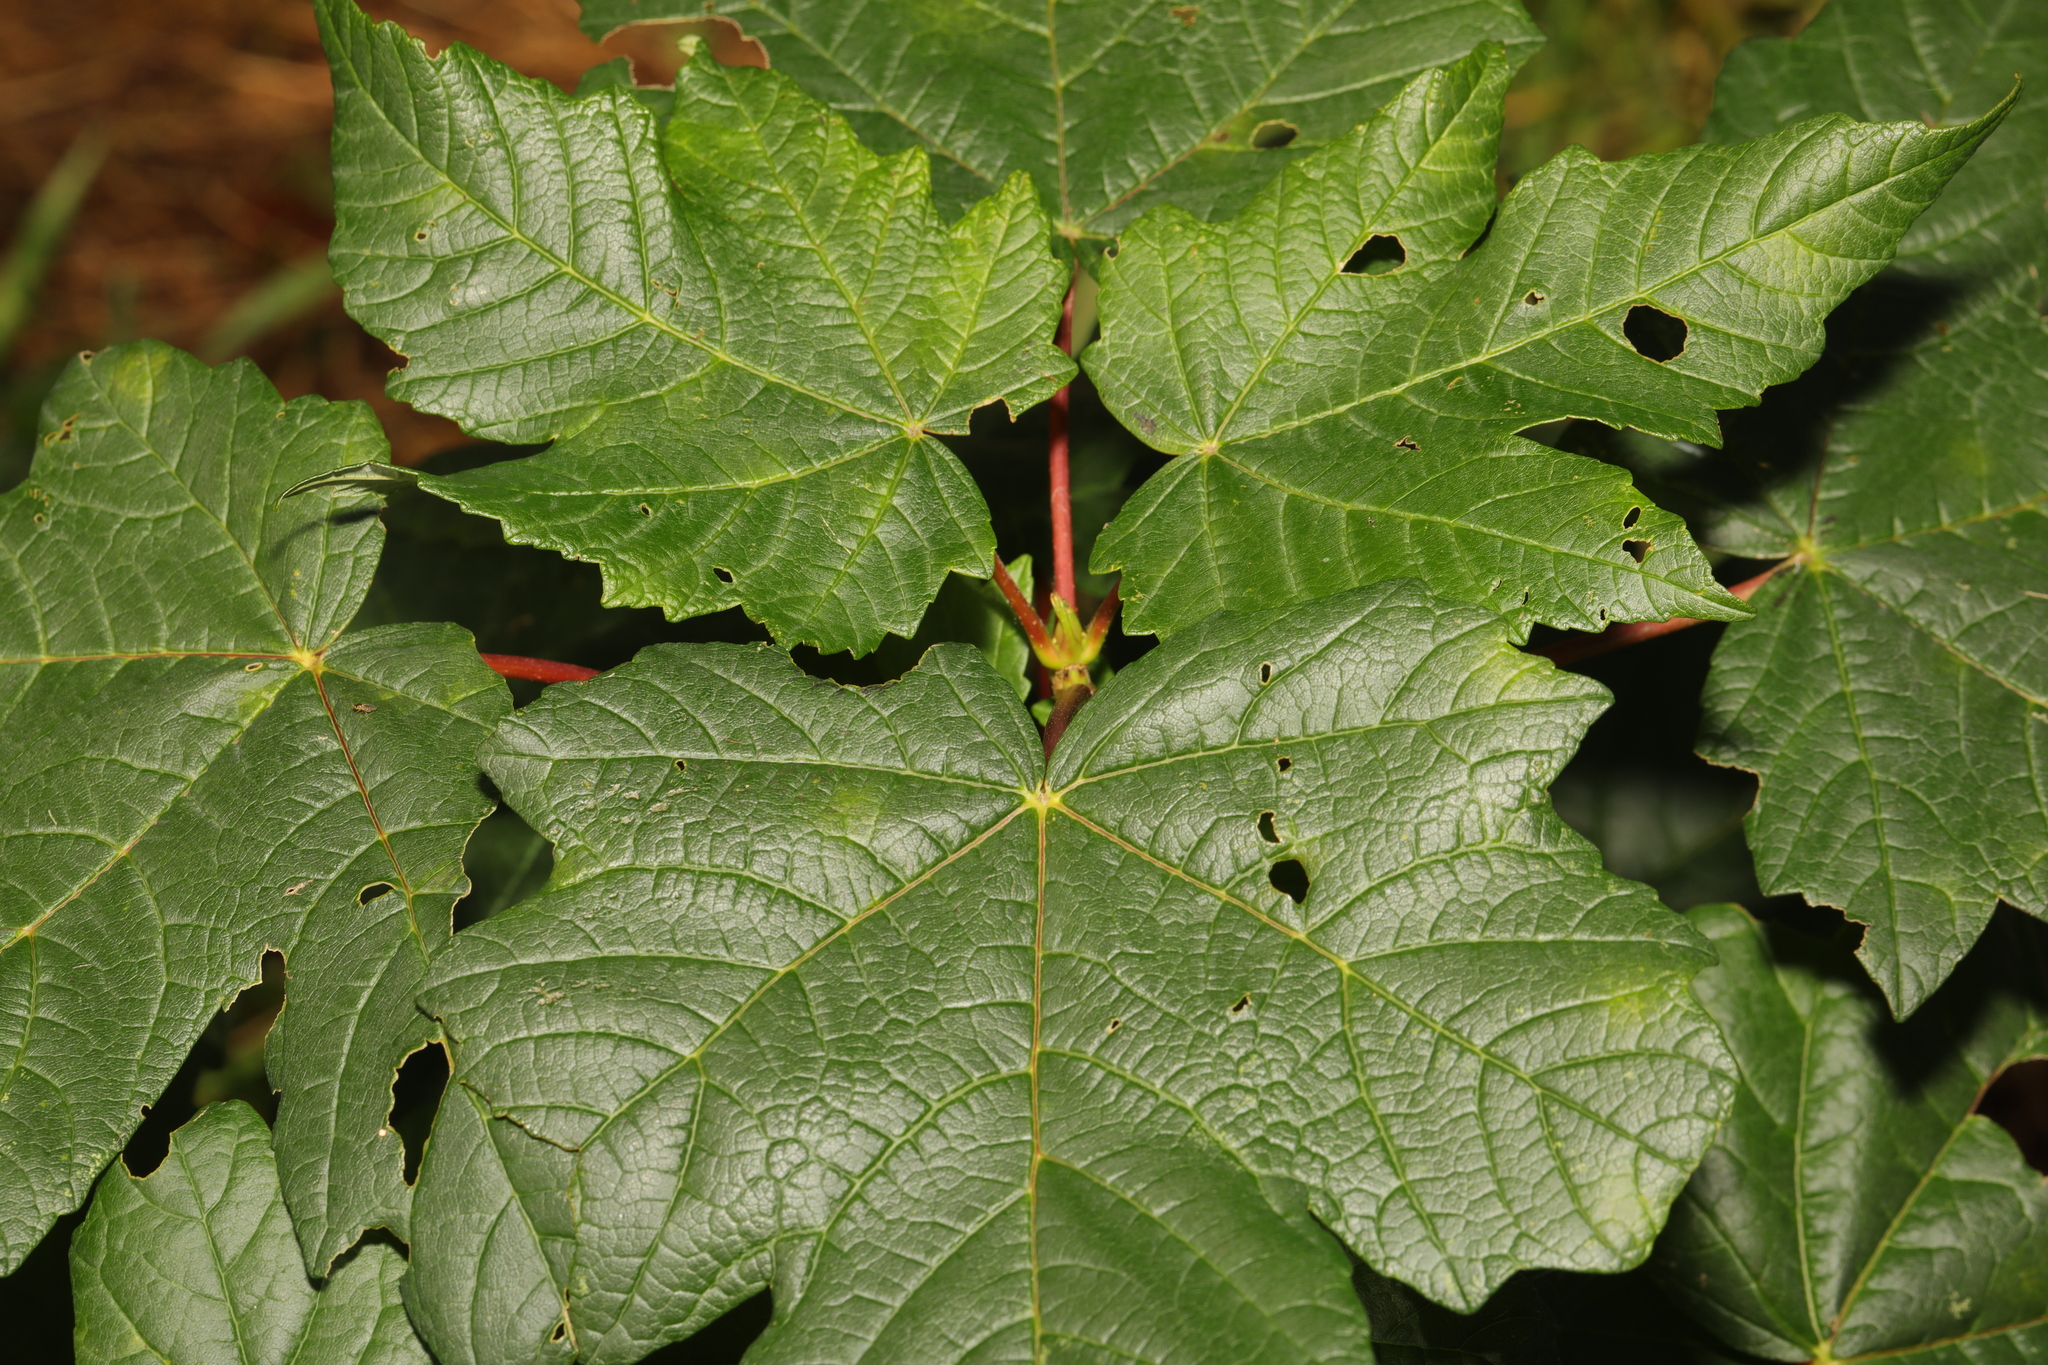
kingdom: Plantae
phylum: Tracheophyta
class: Magnoliopsida
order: Sapindales
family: Sapindaceae
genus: Acer
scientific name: Acer pseudoplatanus
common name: Sycamore
